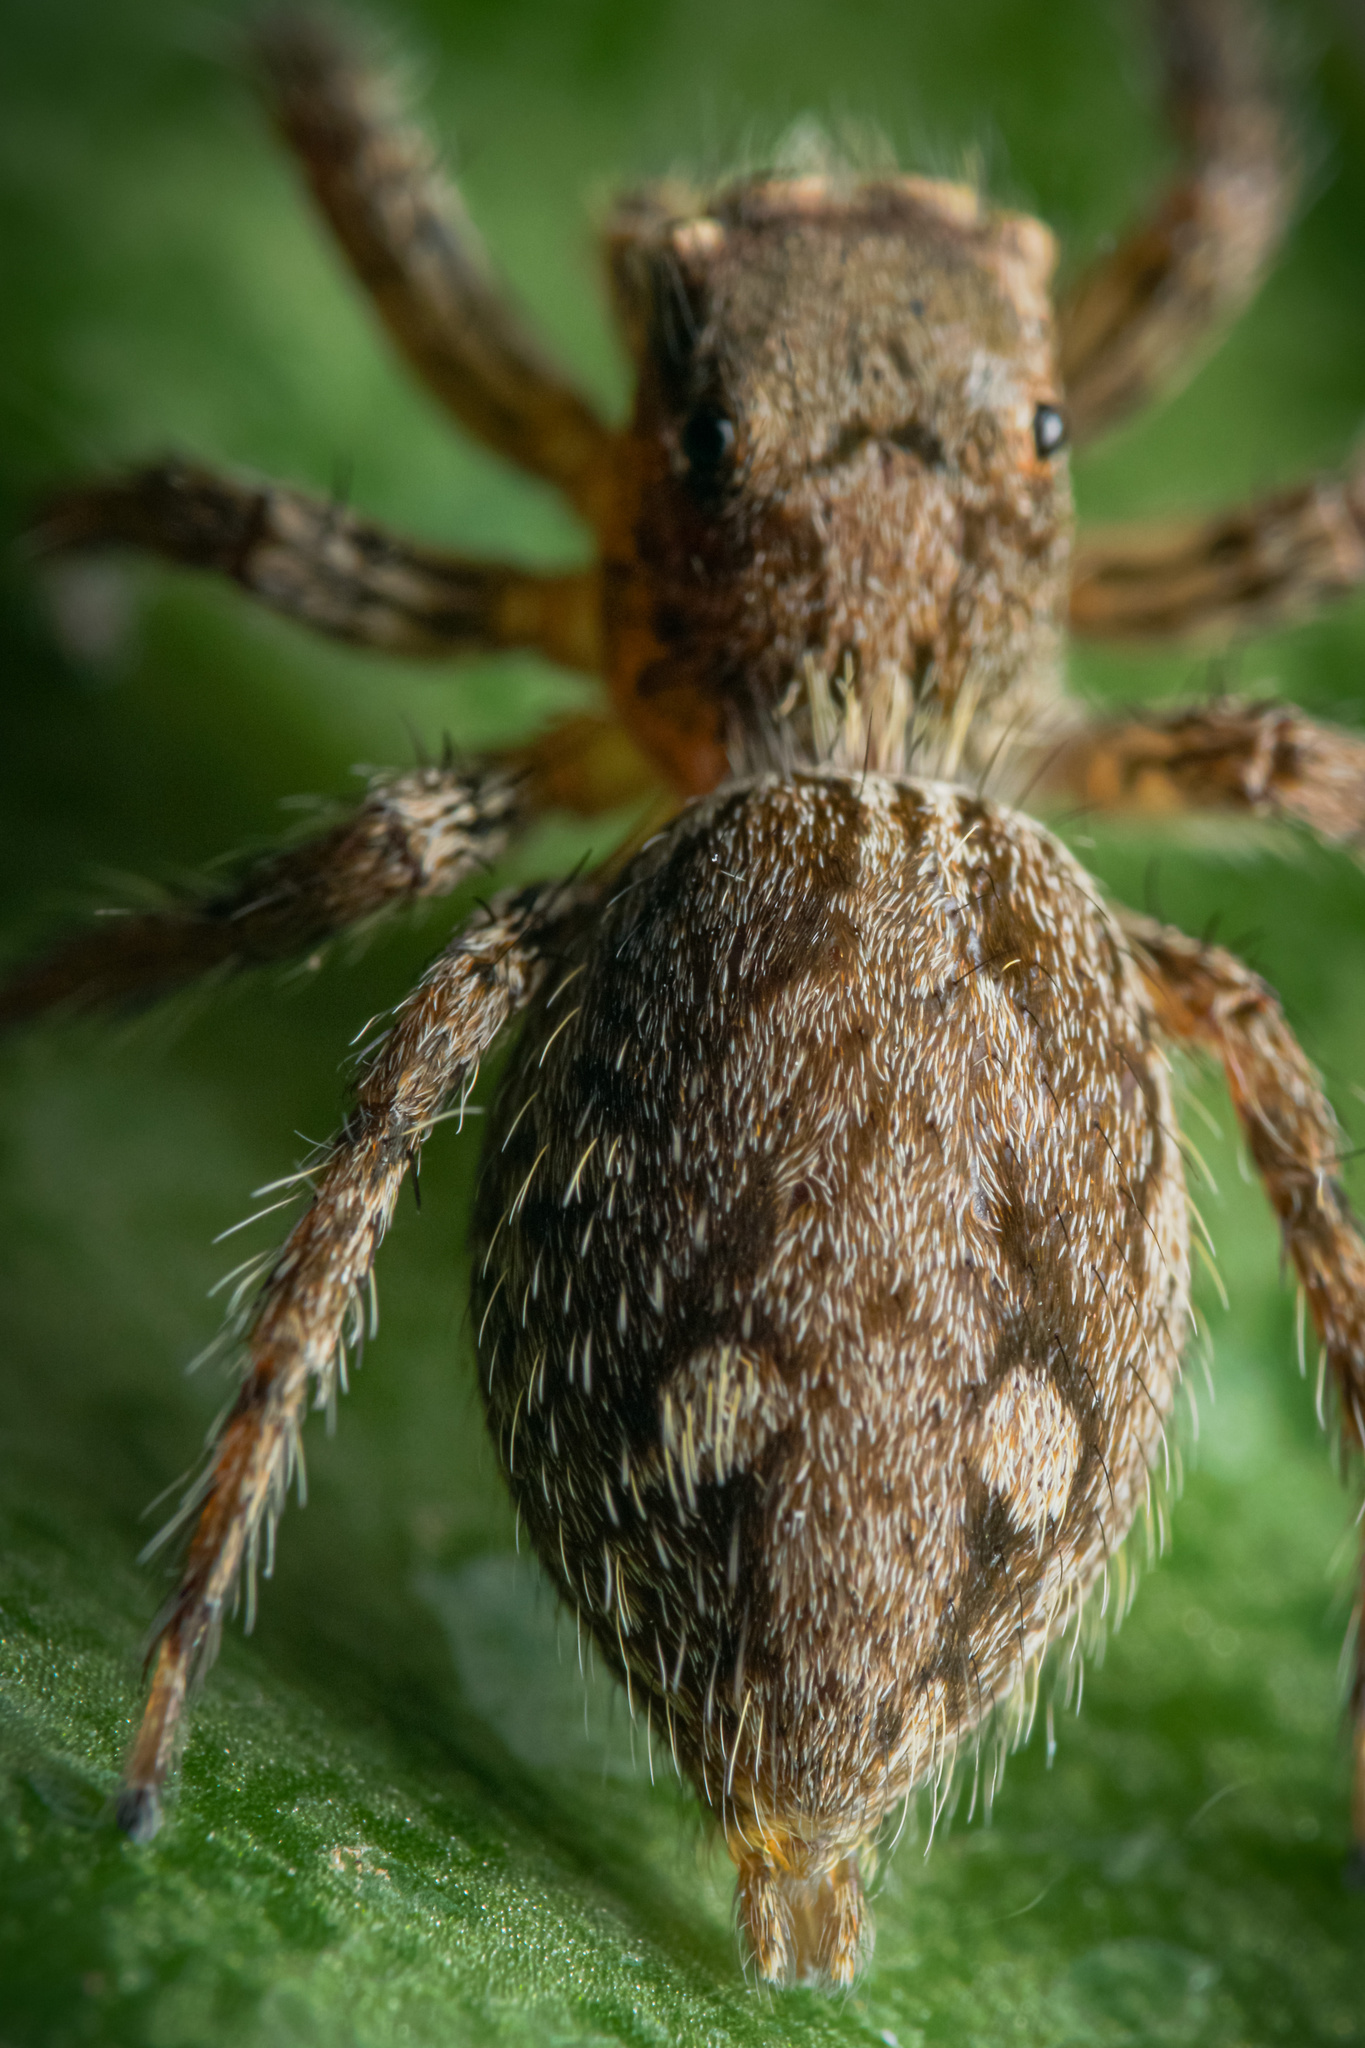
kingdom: Animalia
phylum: Arthropoda
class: Arachnida
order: Araneae
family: Salticidae
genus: Plexippus
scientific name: Plexippus petersi
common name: Jumping spider
